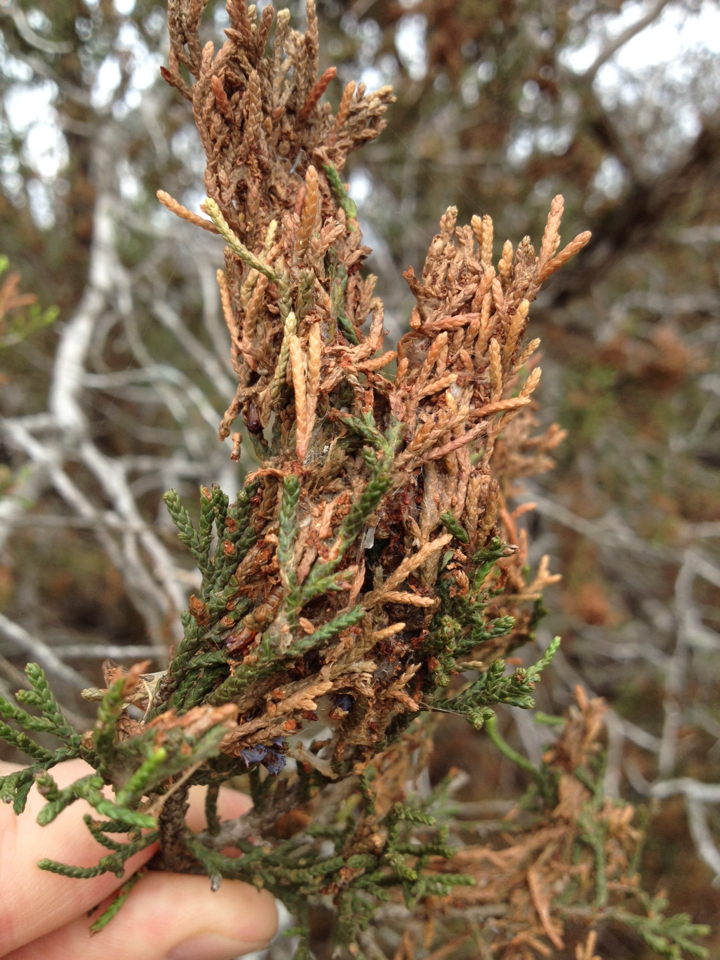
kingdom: Animalia
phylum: Arthropoda
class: Insecta
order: Lepidoptera
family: Tortricidae
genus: Choristoneura
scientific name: Choristoneura houstonana
